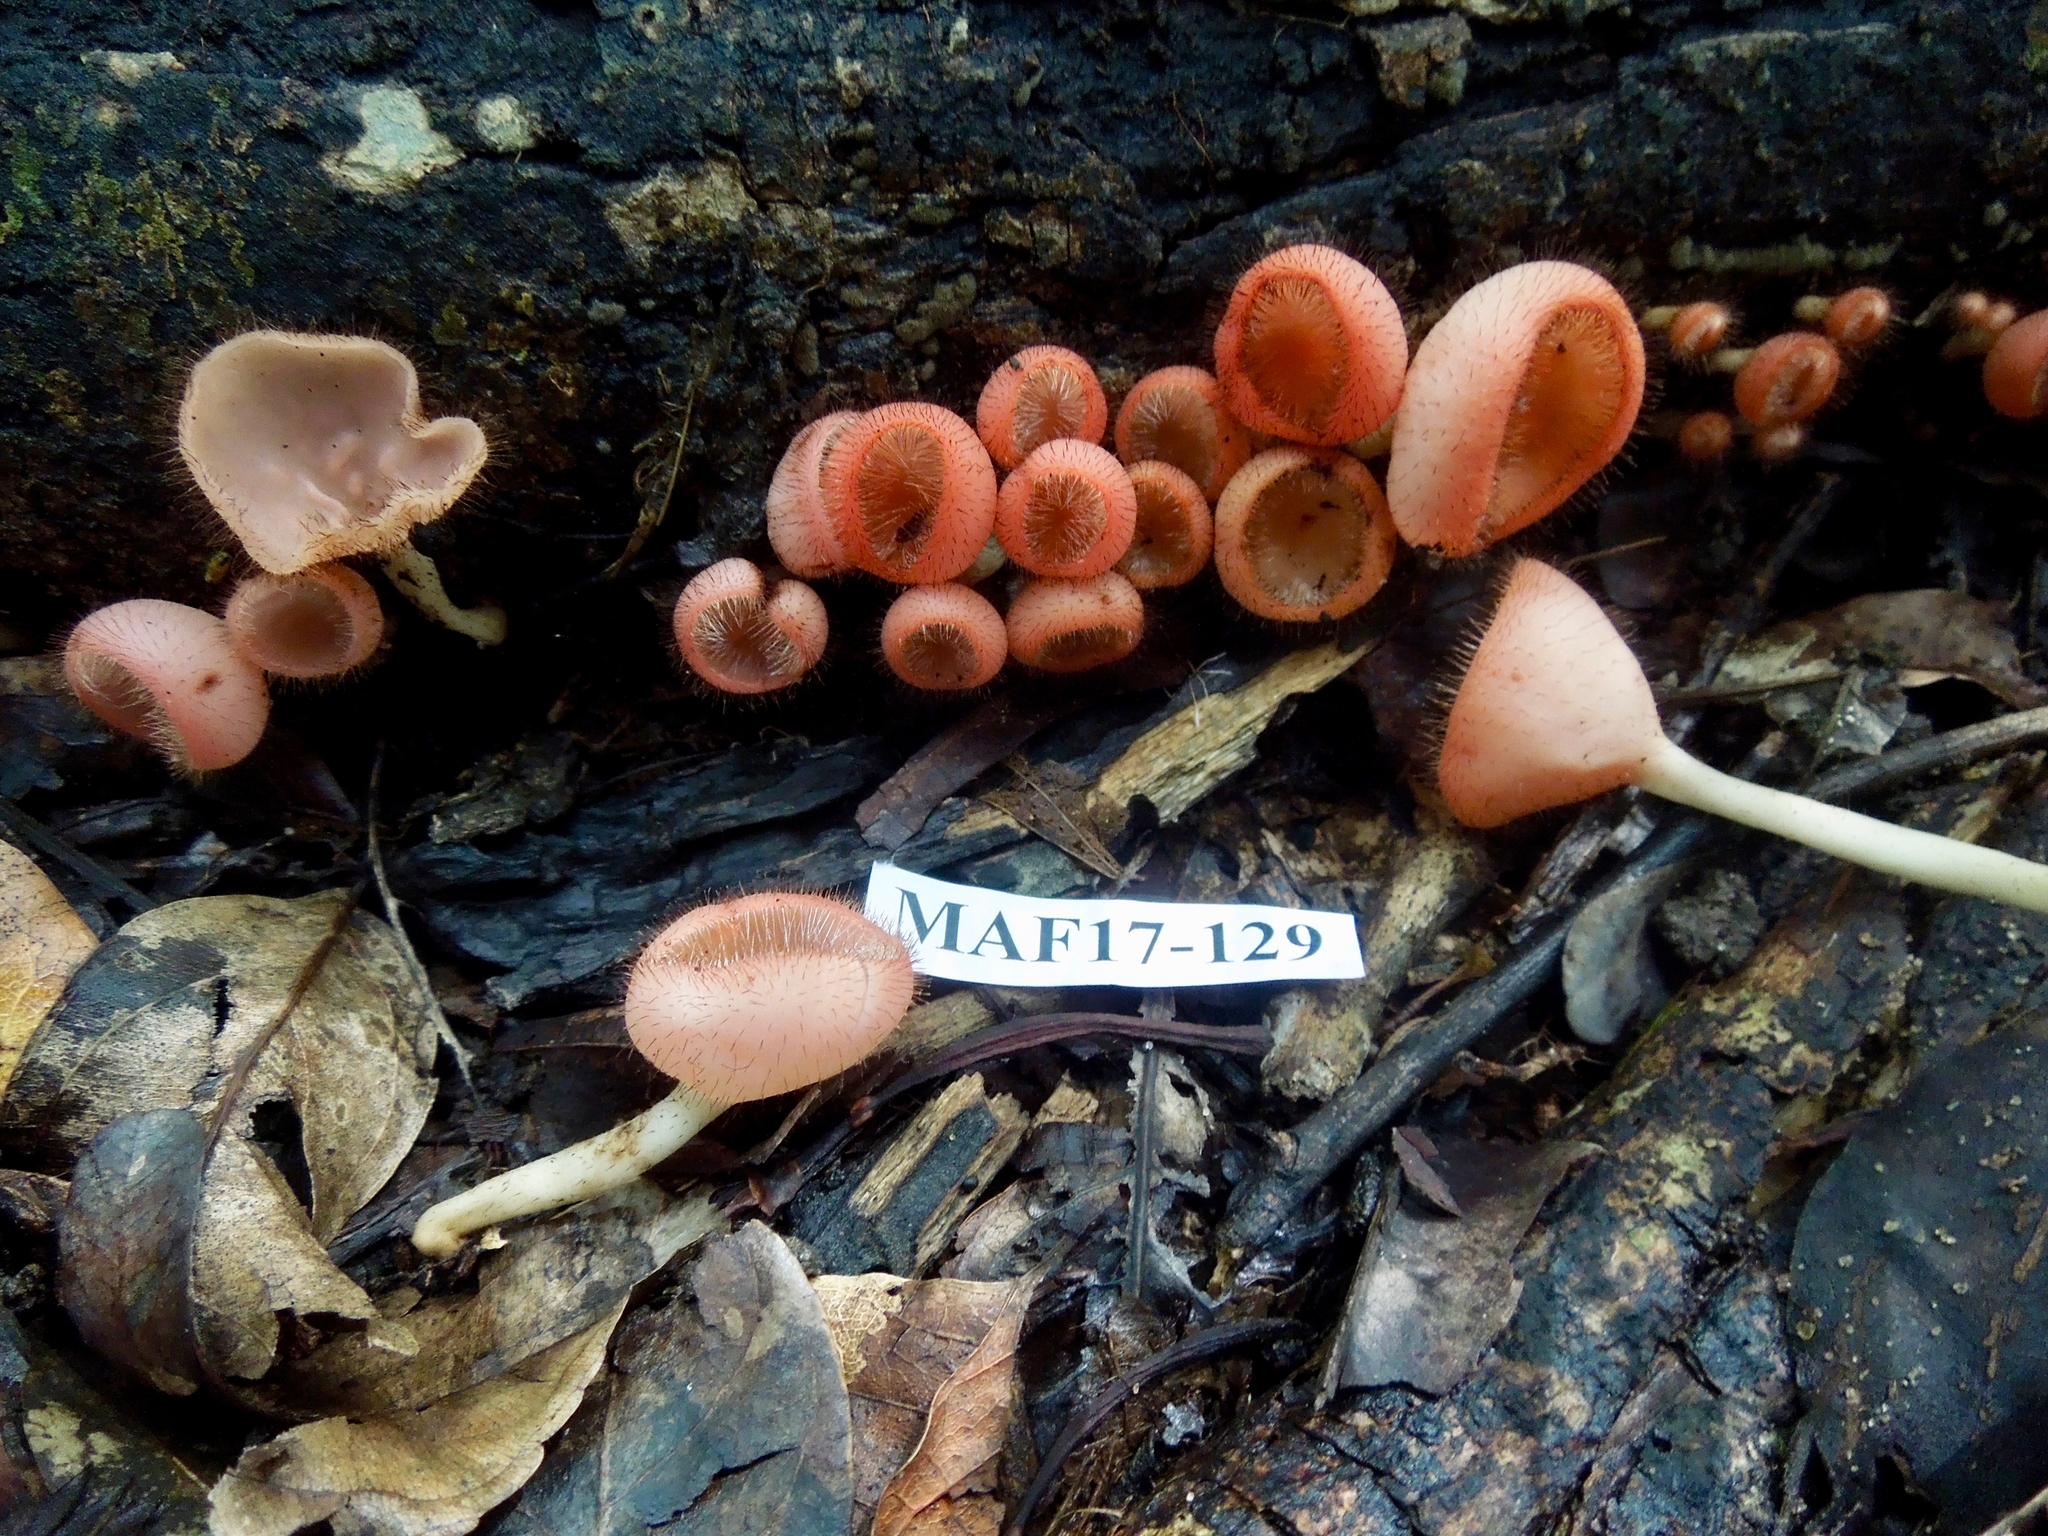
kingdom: Fungi
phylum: Ascomycota
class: Pezizomycetes
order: Pezizales
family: Sarcoscyphaceae
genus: Cookeina
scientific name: Cookeina tricholoma
